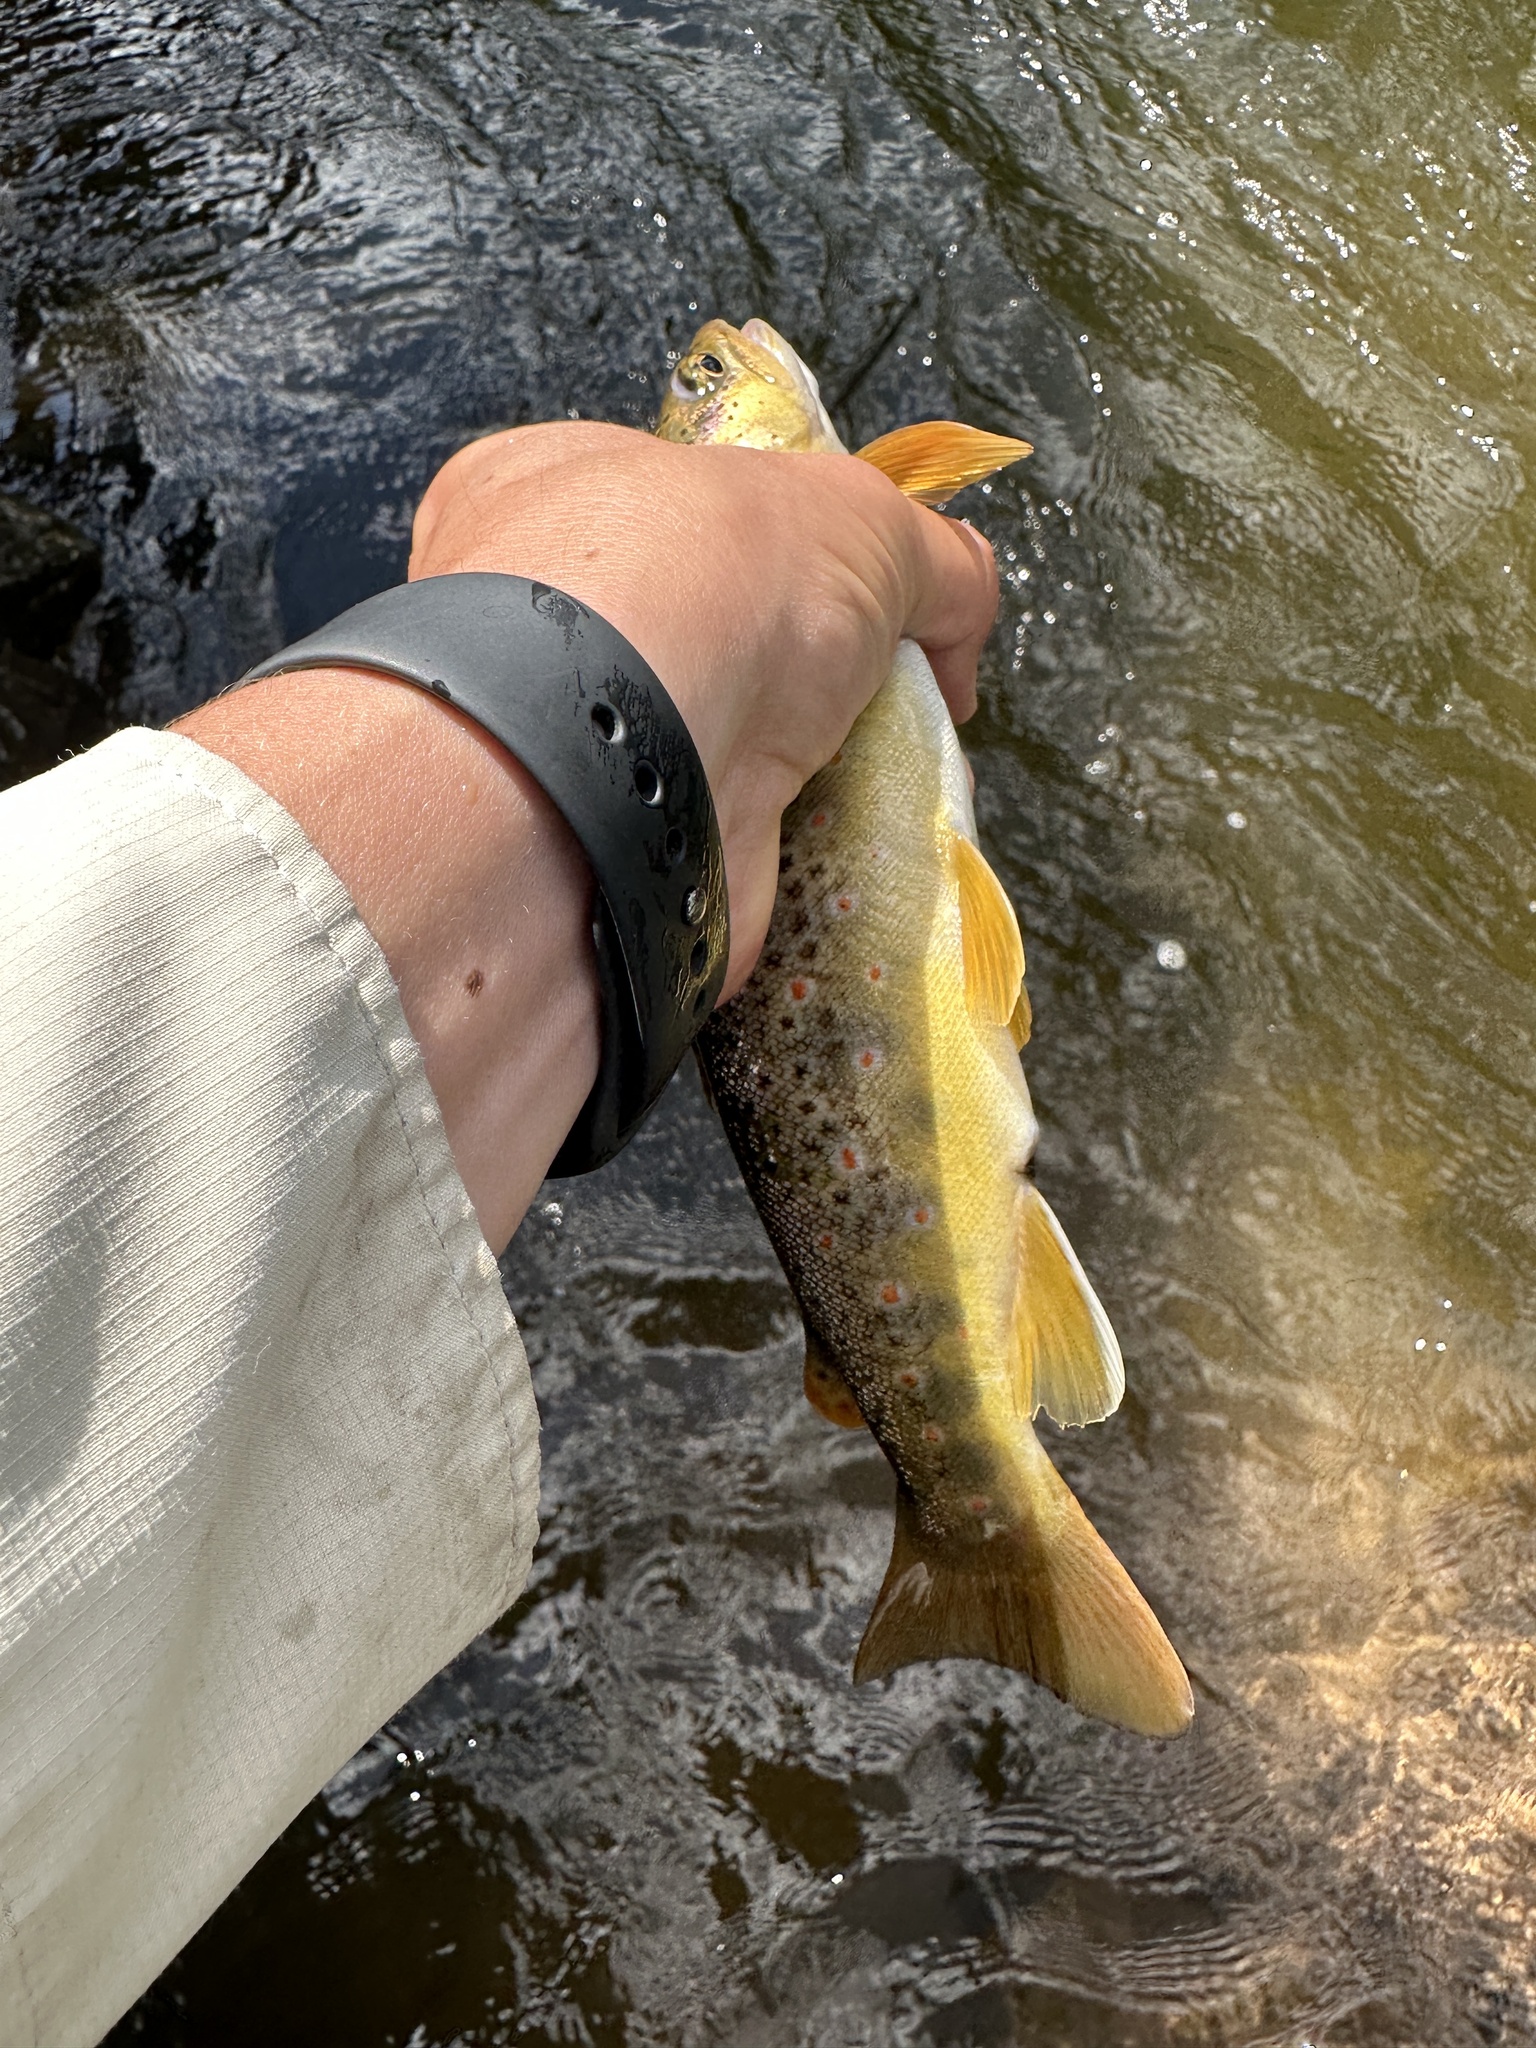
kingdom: Animalia
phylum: Chordata
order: Salmoniformes
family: Salmonidae
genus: Salmo
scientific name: Salmo trutta
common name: Brown trout
